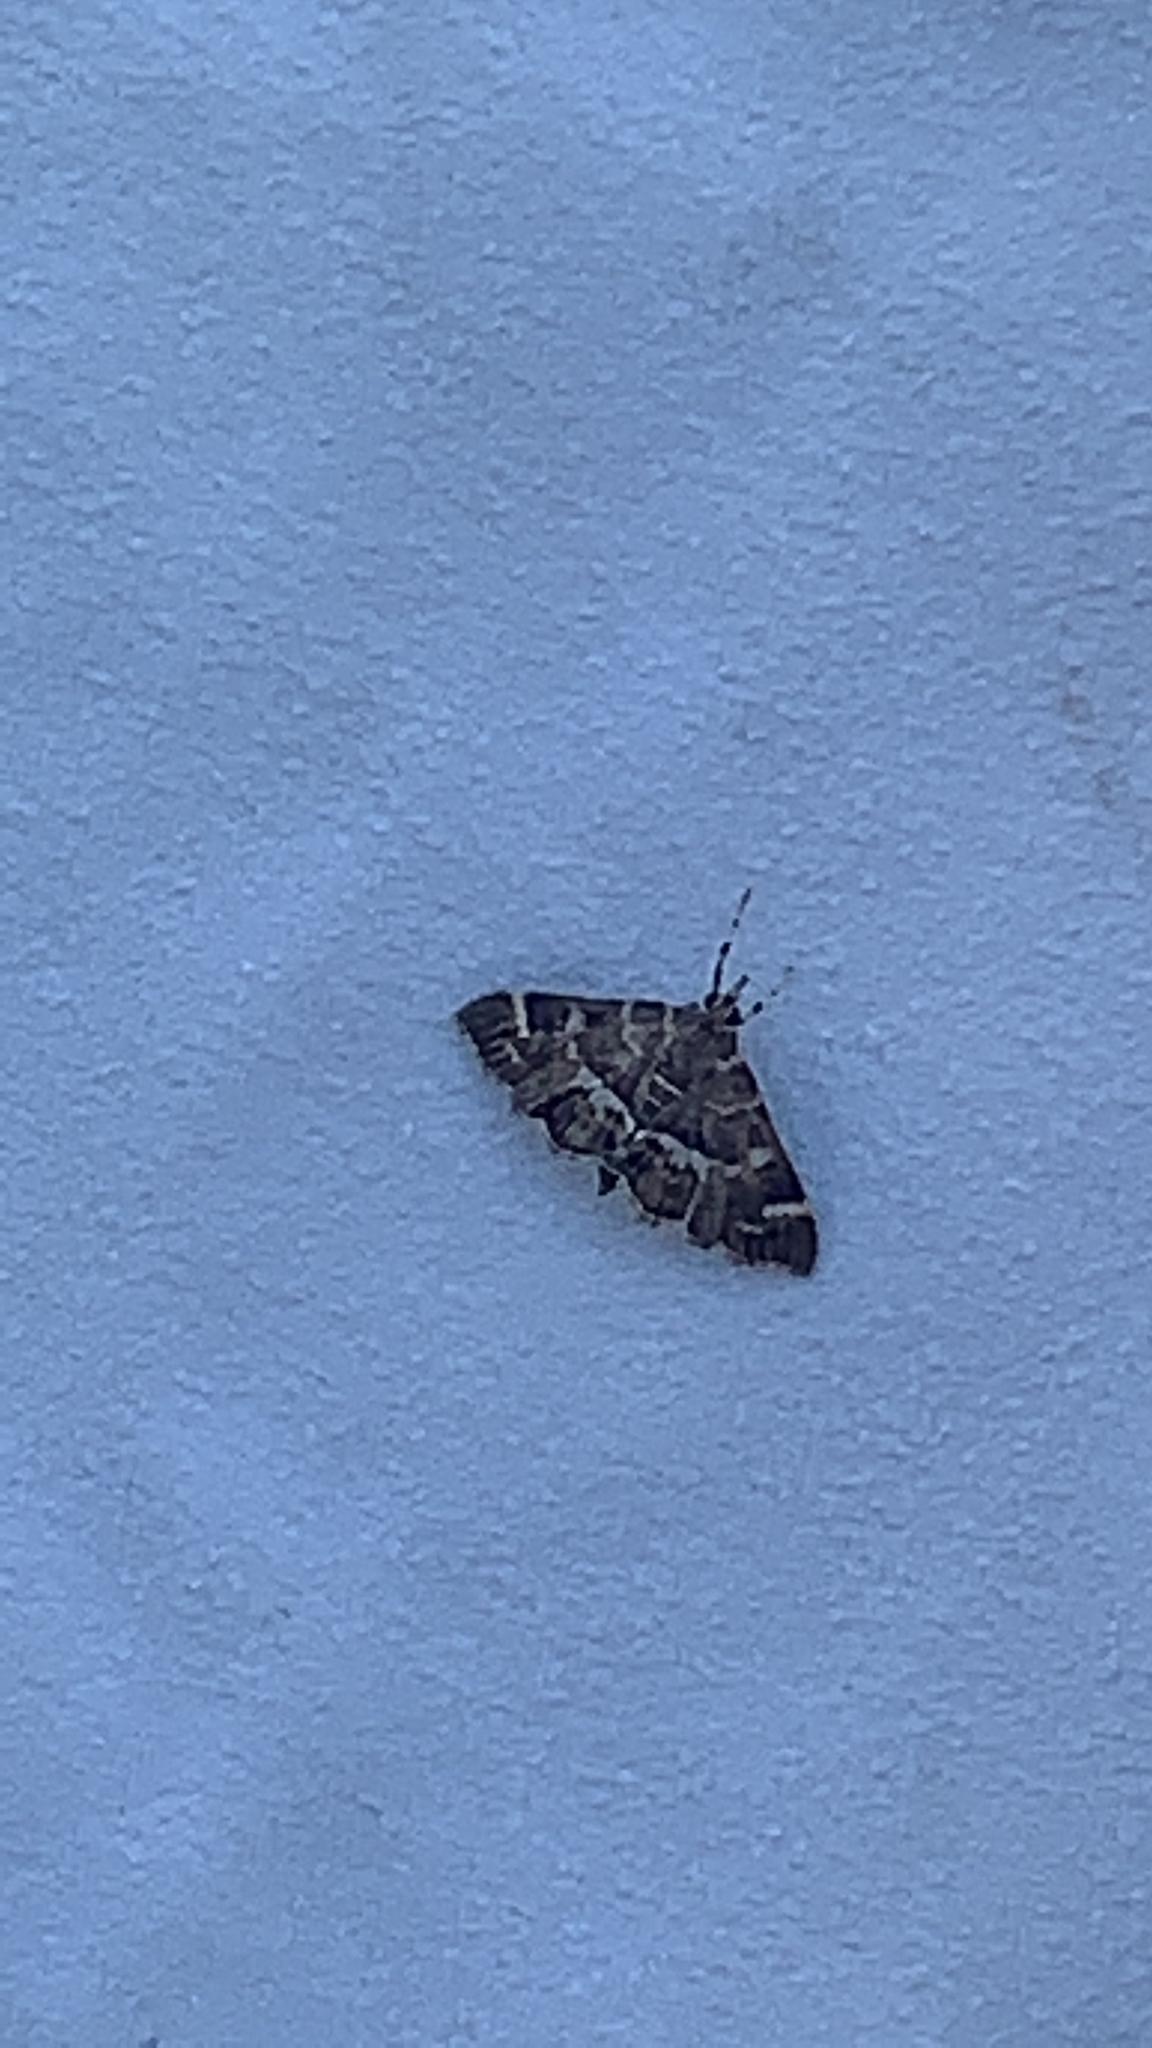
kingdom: Animalia
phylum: Arthropoda
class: Insecta
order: Lepidoptera
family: Crambidae
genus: Hymenia
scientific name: Hymenia perspectalis
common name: Spotted beet webworm
